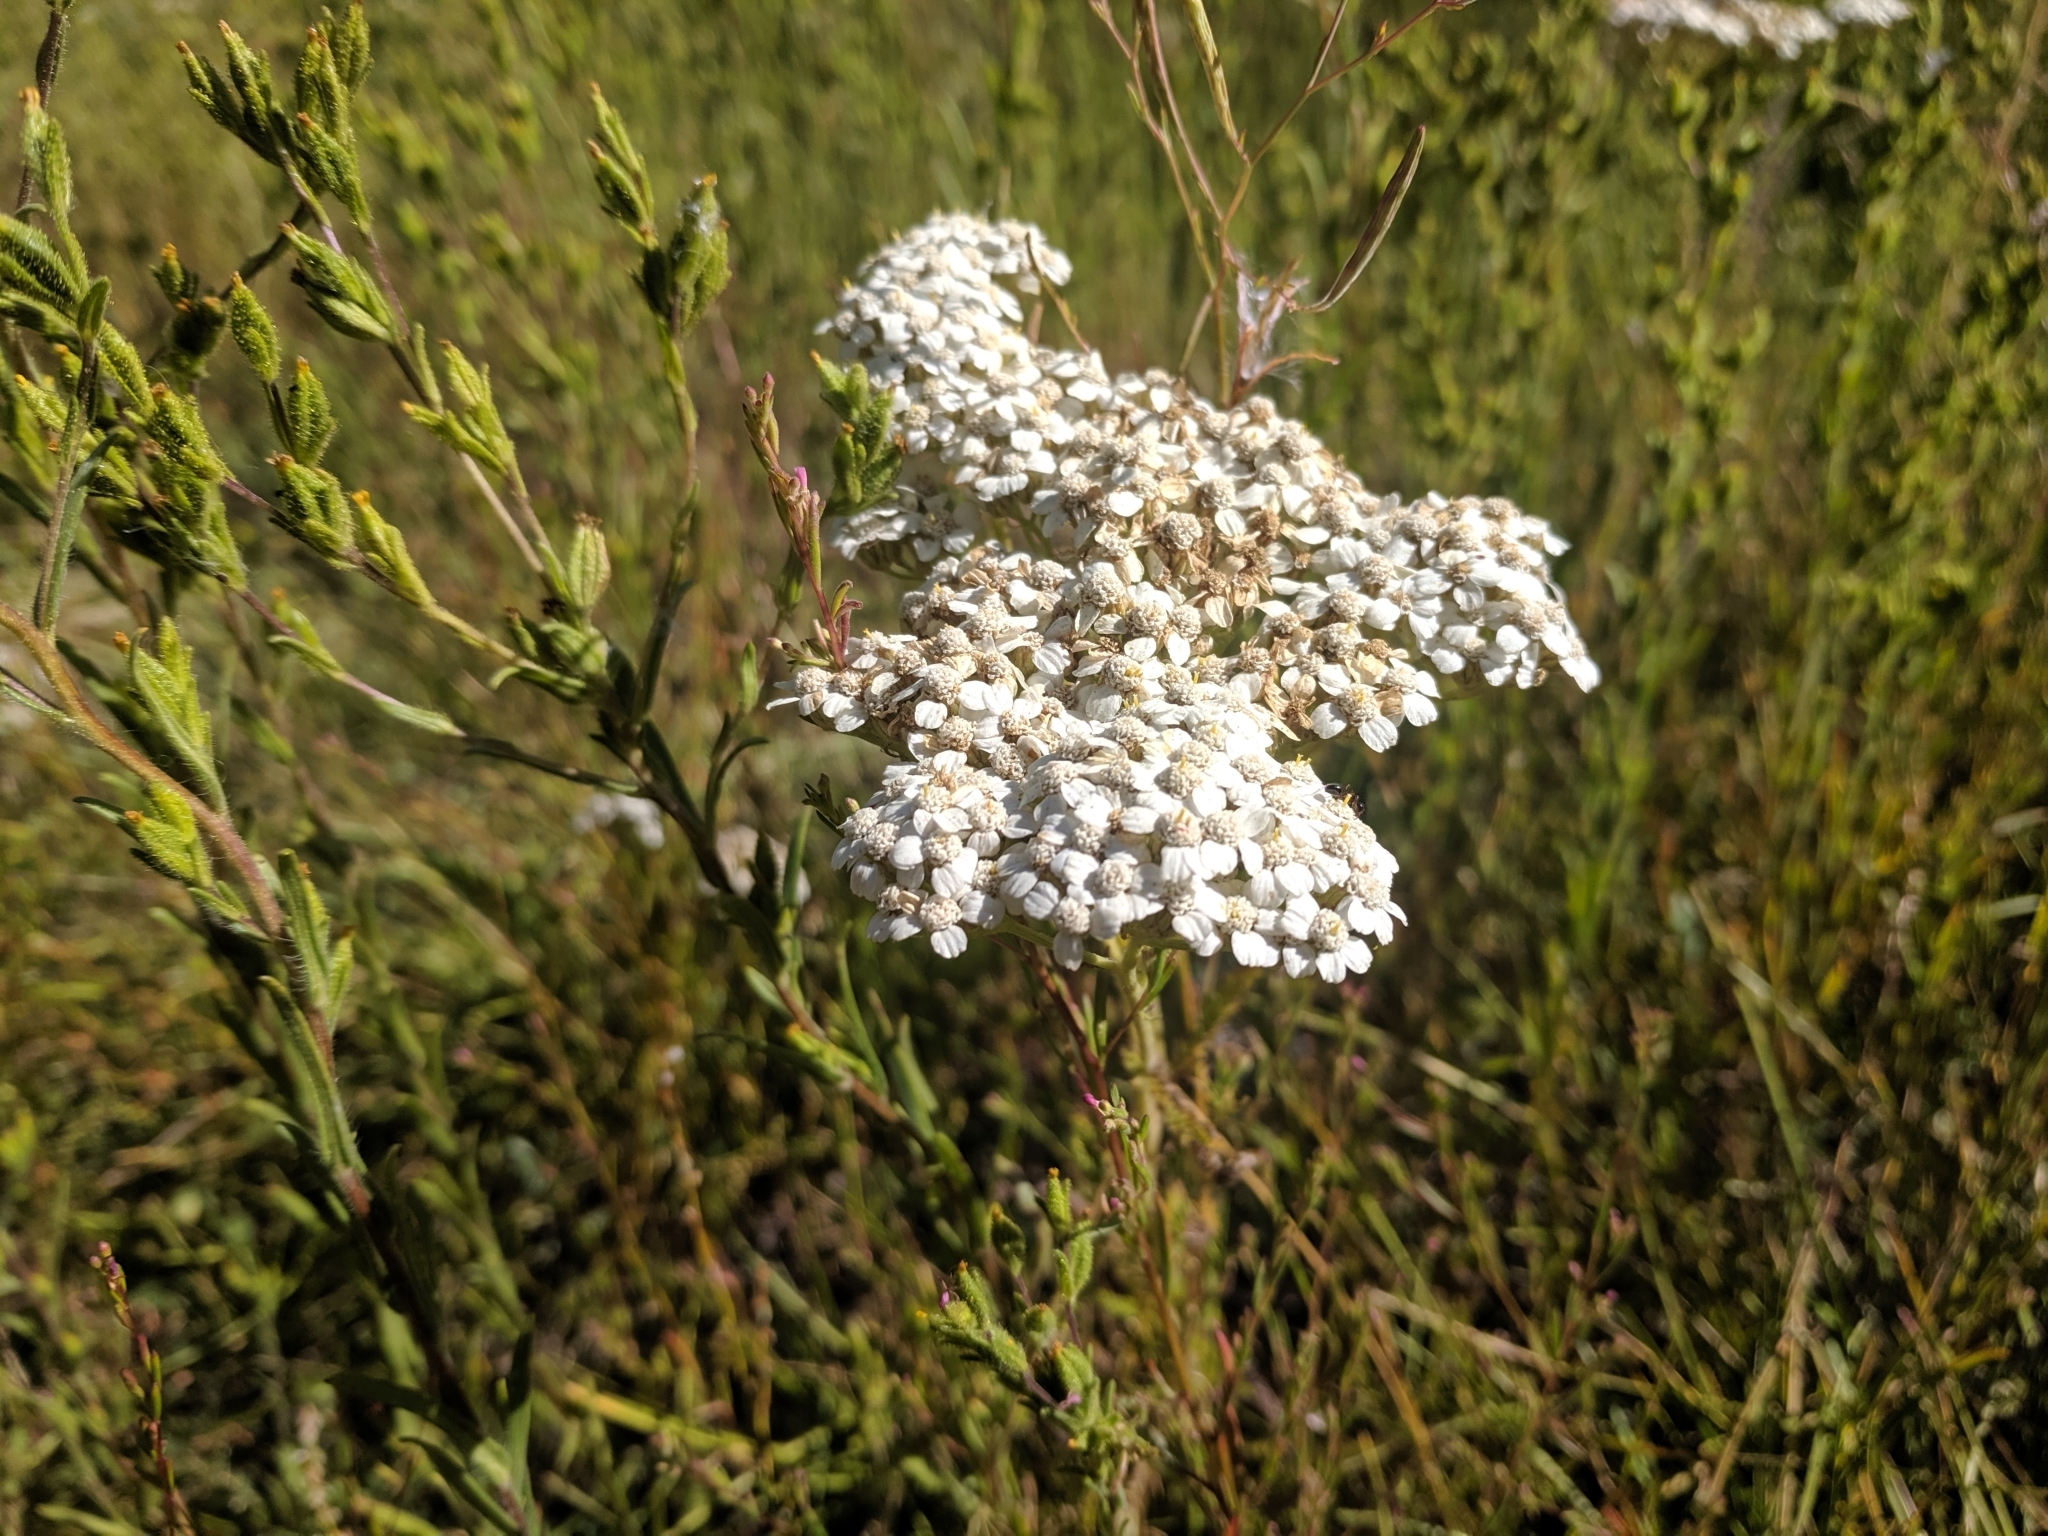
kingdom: Plantae
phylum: Tracheophyta
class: Magnoliopsida
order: Asterales
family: Asteraceae
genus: Achillea
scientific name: Achillea millefolium
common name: Yarrow
